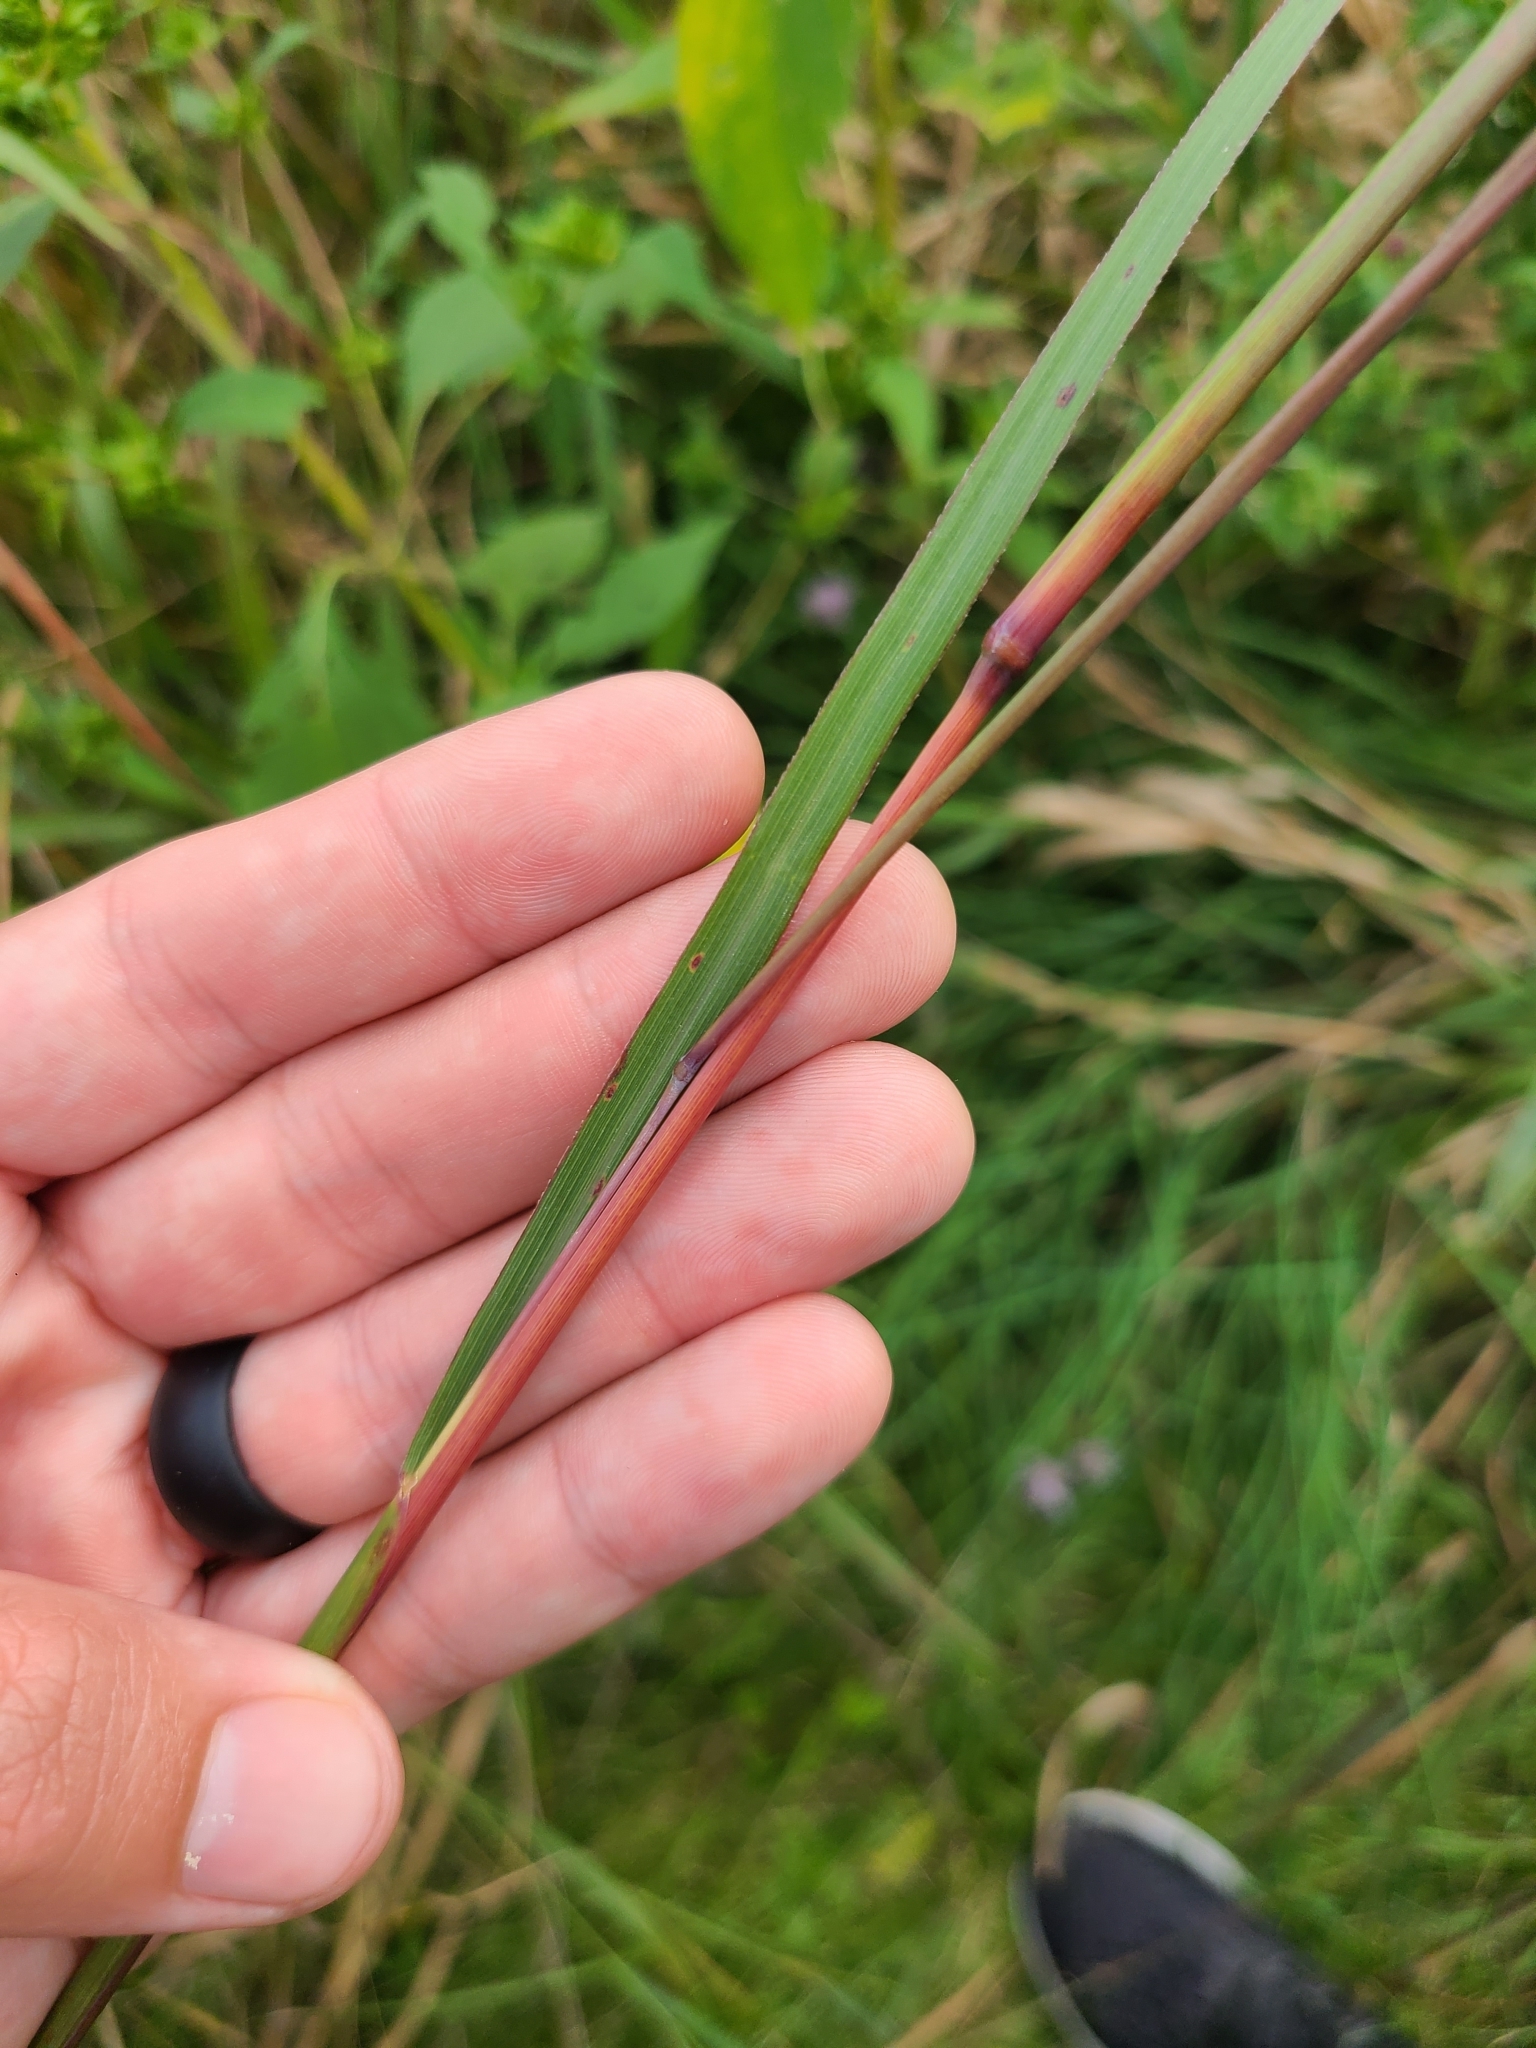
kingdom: Plantae
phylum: Tracheophyta
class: Liliopsida
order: Poales
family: Poaceae
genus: Andropogon
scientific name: Andropogon gerardi
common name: Big bluestem
